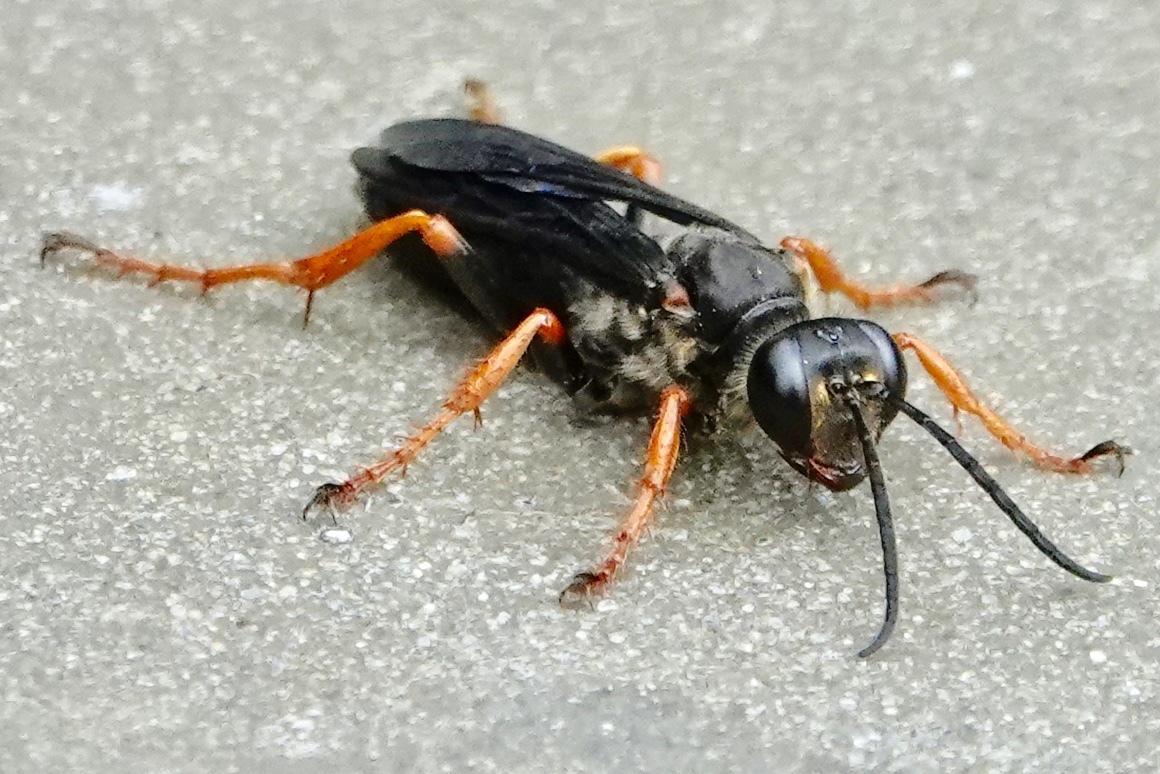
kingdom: Animalia
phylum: Arthropoda
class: Insecta
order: Hymenoptera
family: Sphecidae
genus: Sphex
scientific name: Sphex nudus
